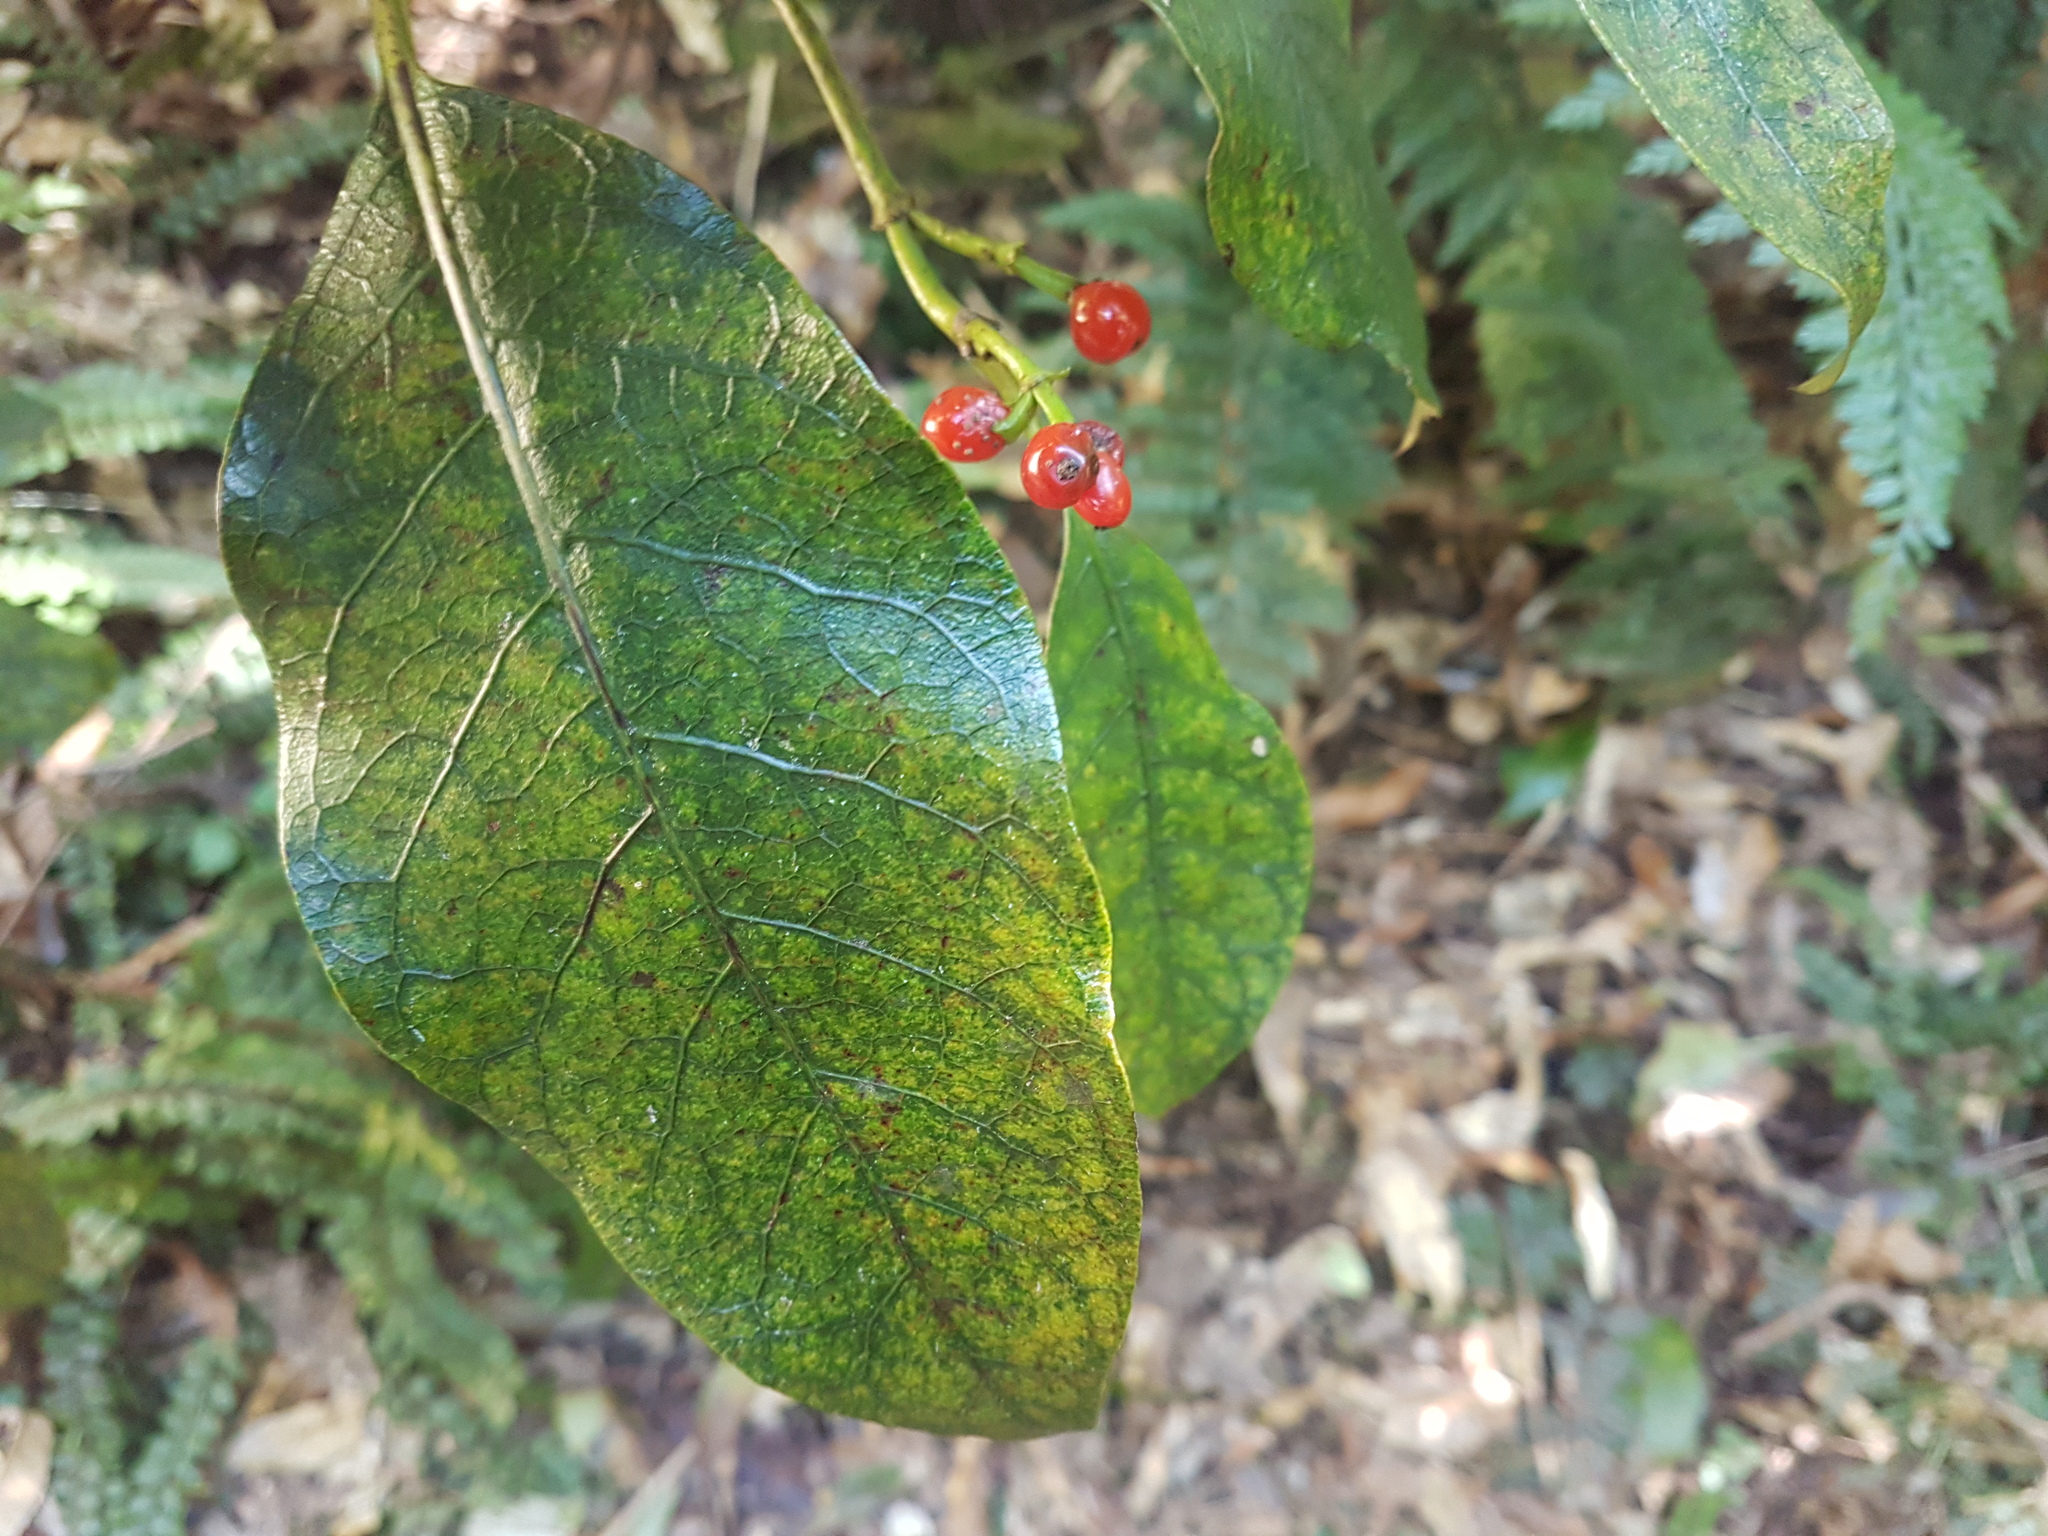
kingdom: Plantae
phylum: Tracheophyta
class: Magnoliopsida
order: Gentianales
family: Rubiaceae
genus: Coprosma
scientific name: Coprosma autumnalis
